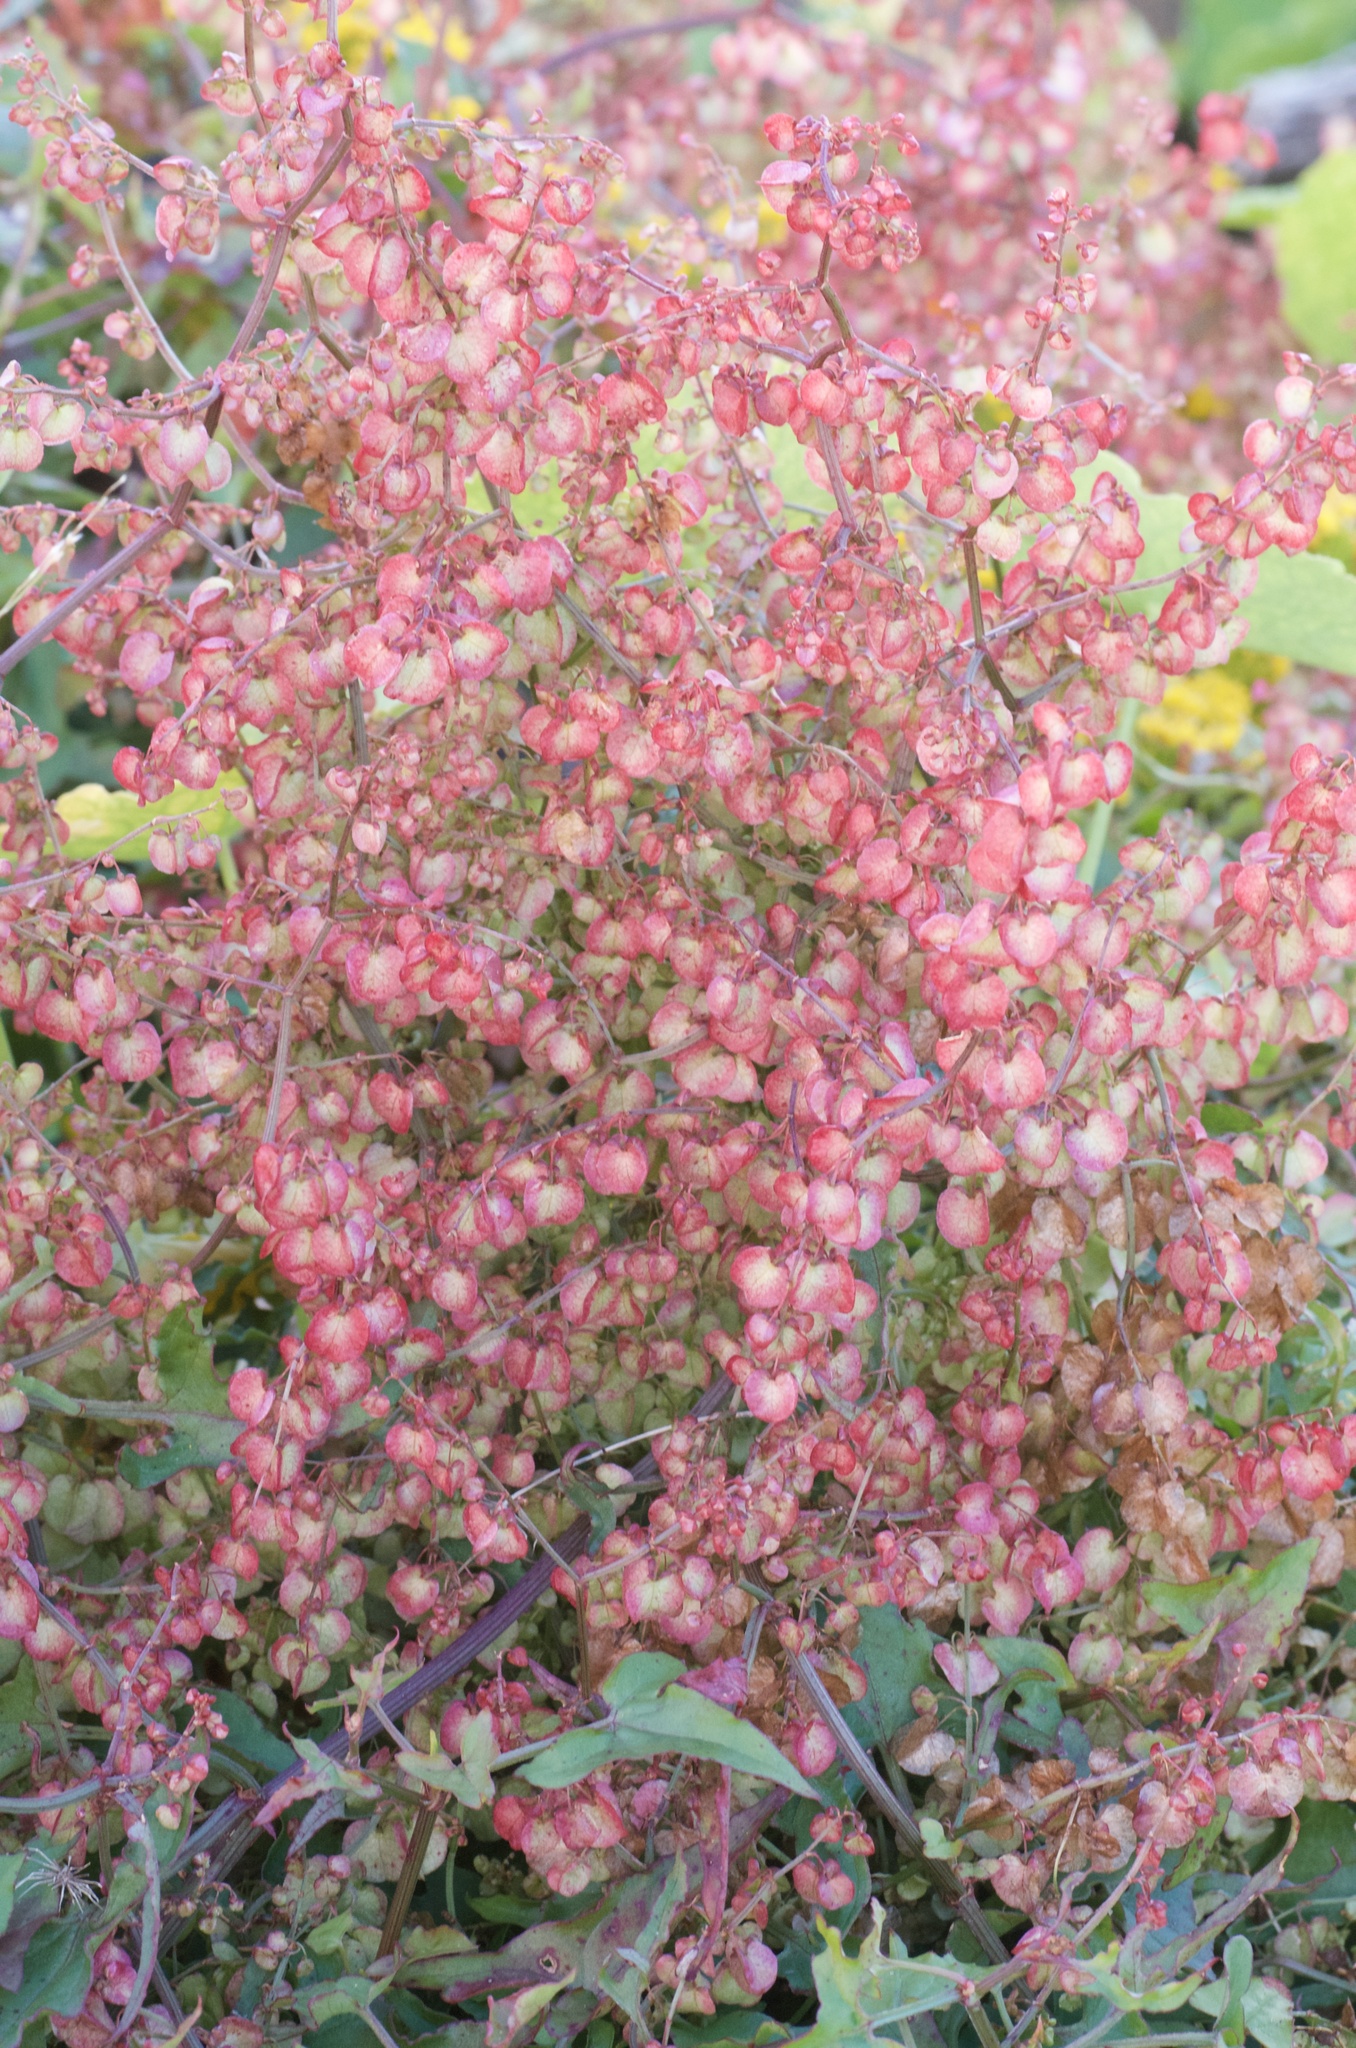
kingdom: Plantae
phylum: Tracheophyta
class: Magnoliopsida
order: Caryophyllales
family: Polygonaceae
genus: Rumex
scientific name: Rumex sagittatus
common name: Climbing dock
